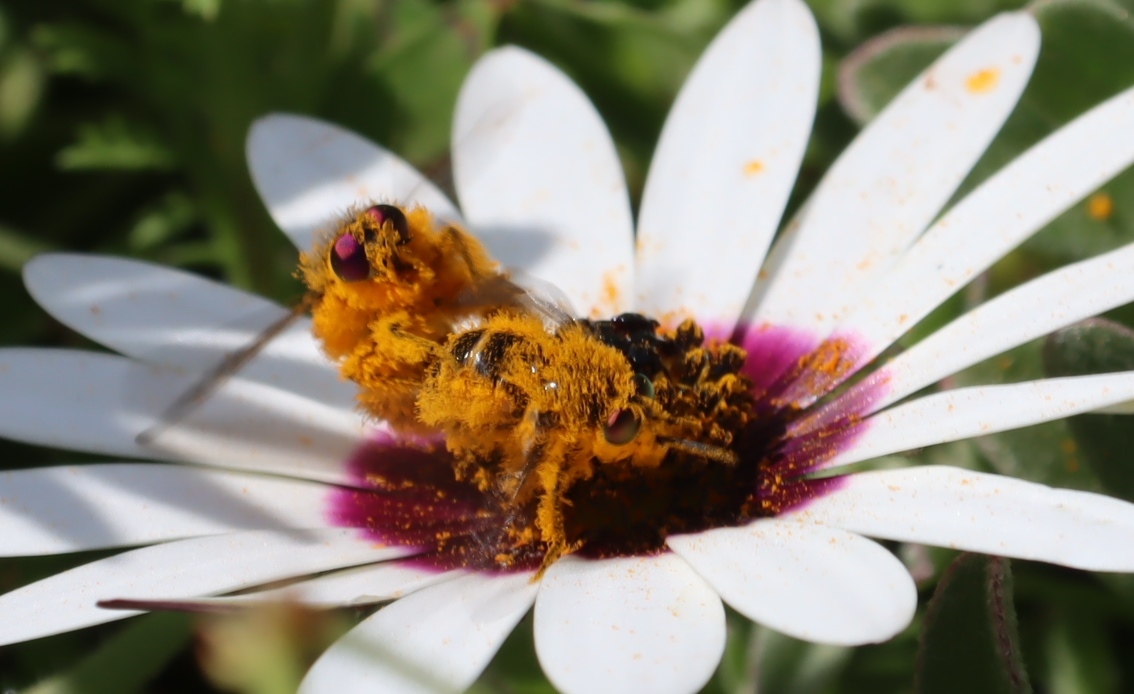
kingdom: Animalia
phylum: Arthropoda
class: Insecta
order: Diptera
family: Tabanidae
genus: Rhigioglossa
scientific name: Rhigioglossa nitens
